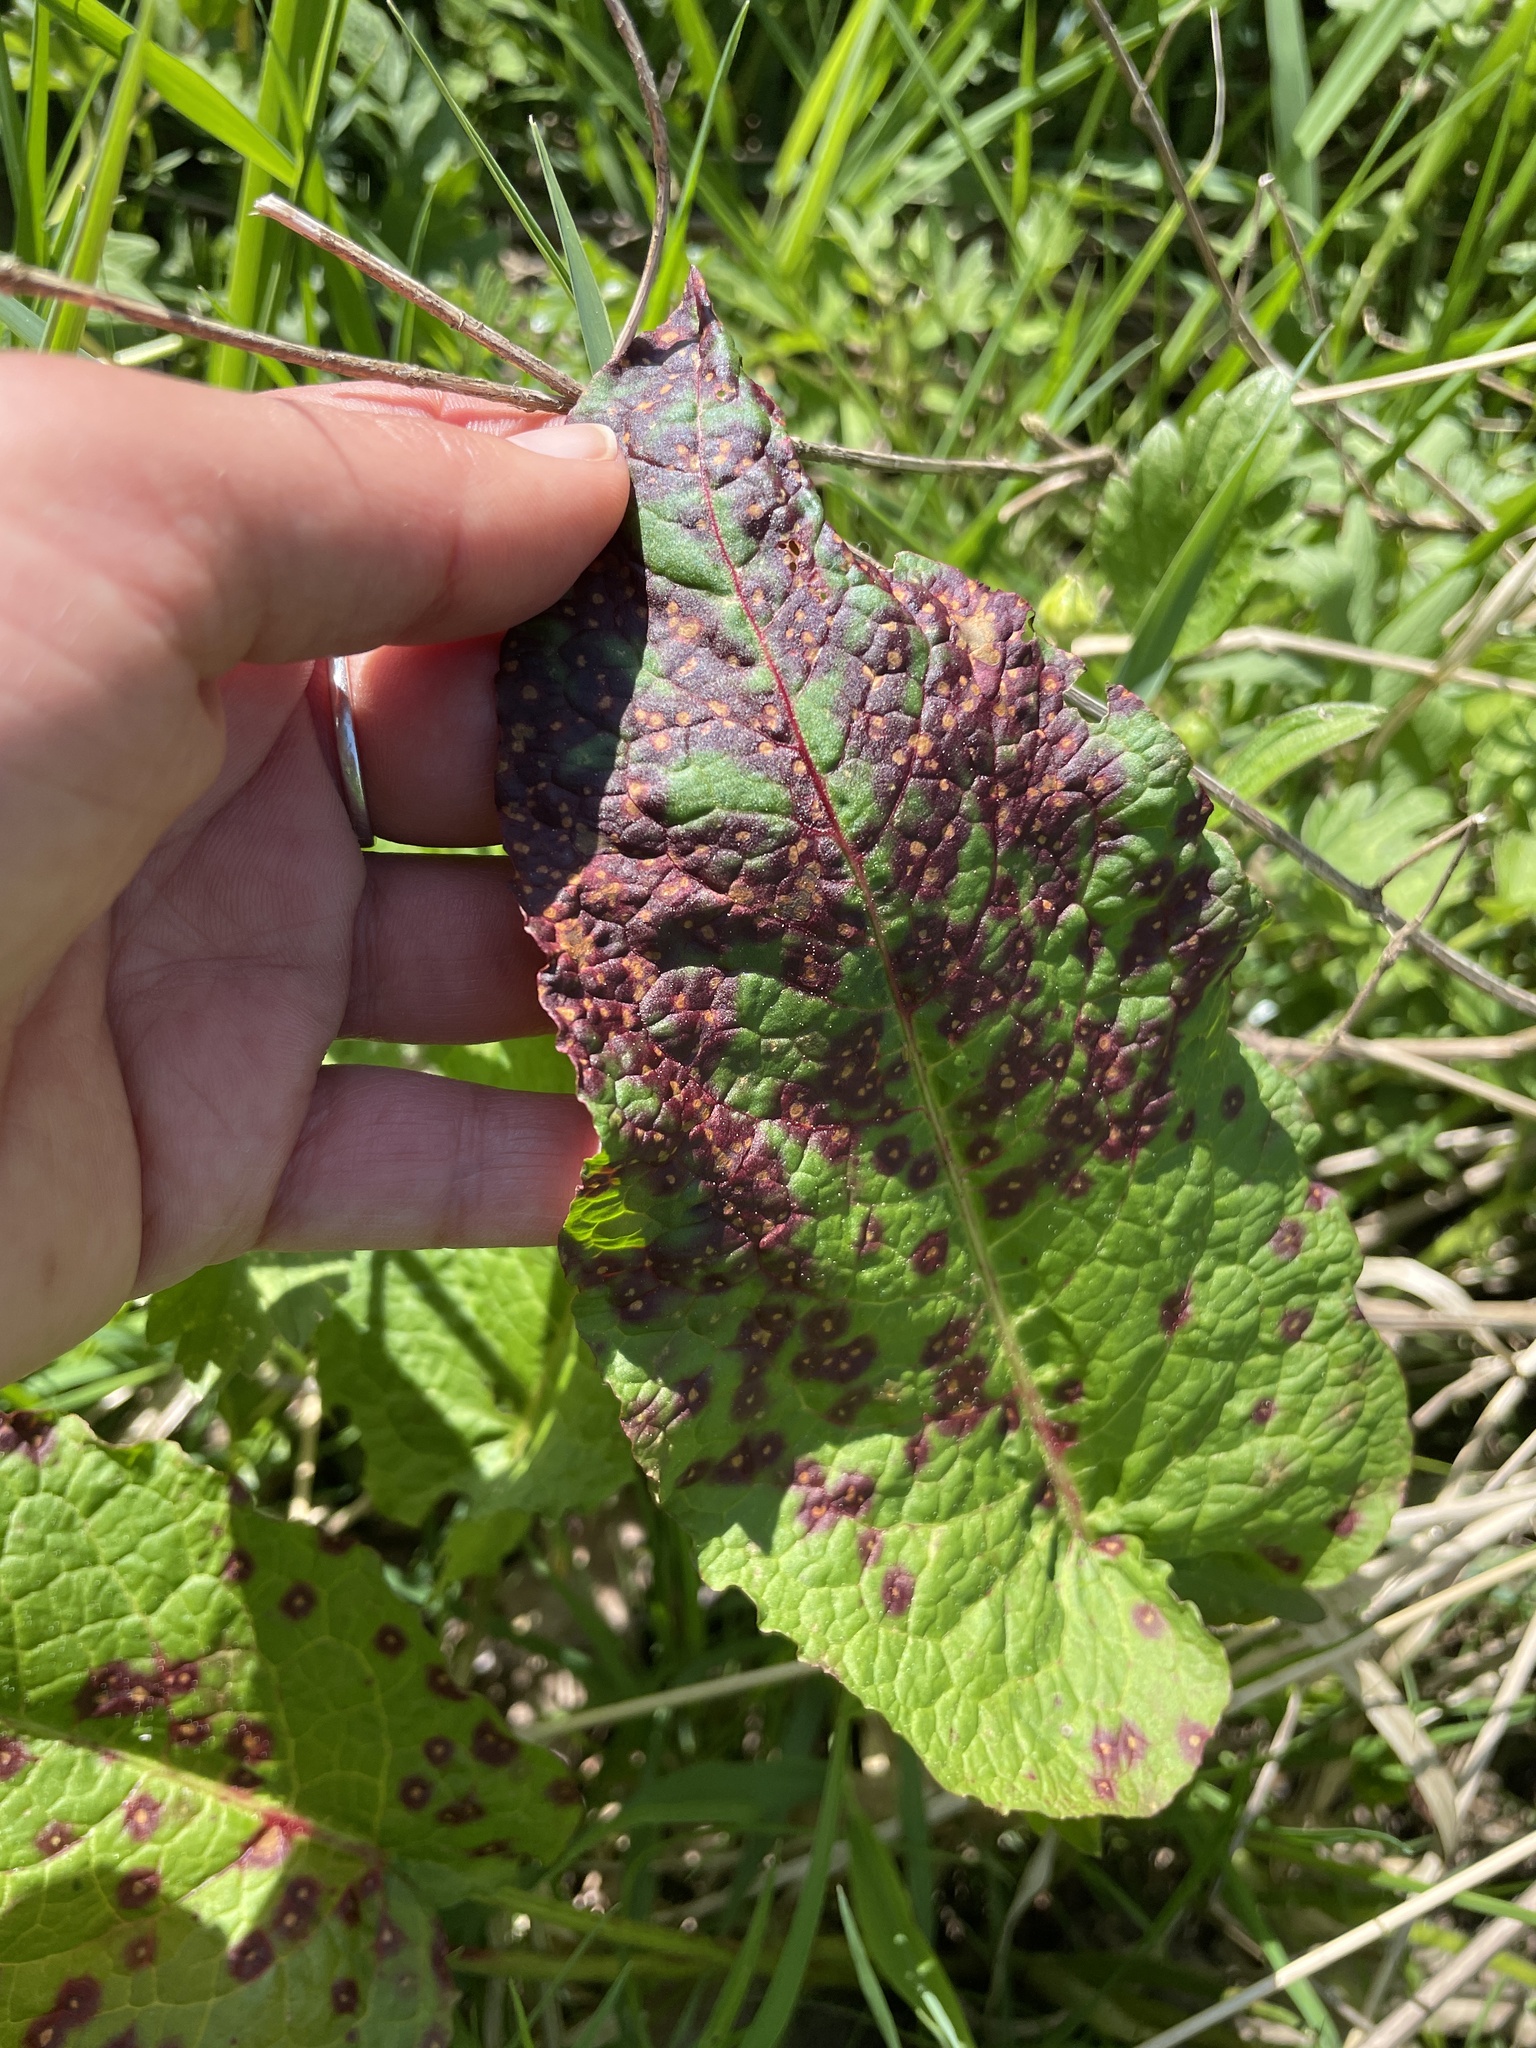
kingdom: Fungi
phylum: Ascomycota
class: Dothideomycetes
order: Mycosphaerellales
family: Mycosphaerellaceae
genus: Ramularia
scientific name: Ramularia rubella
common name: Red dock spot
